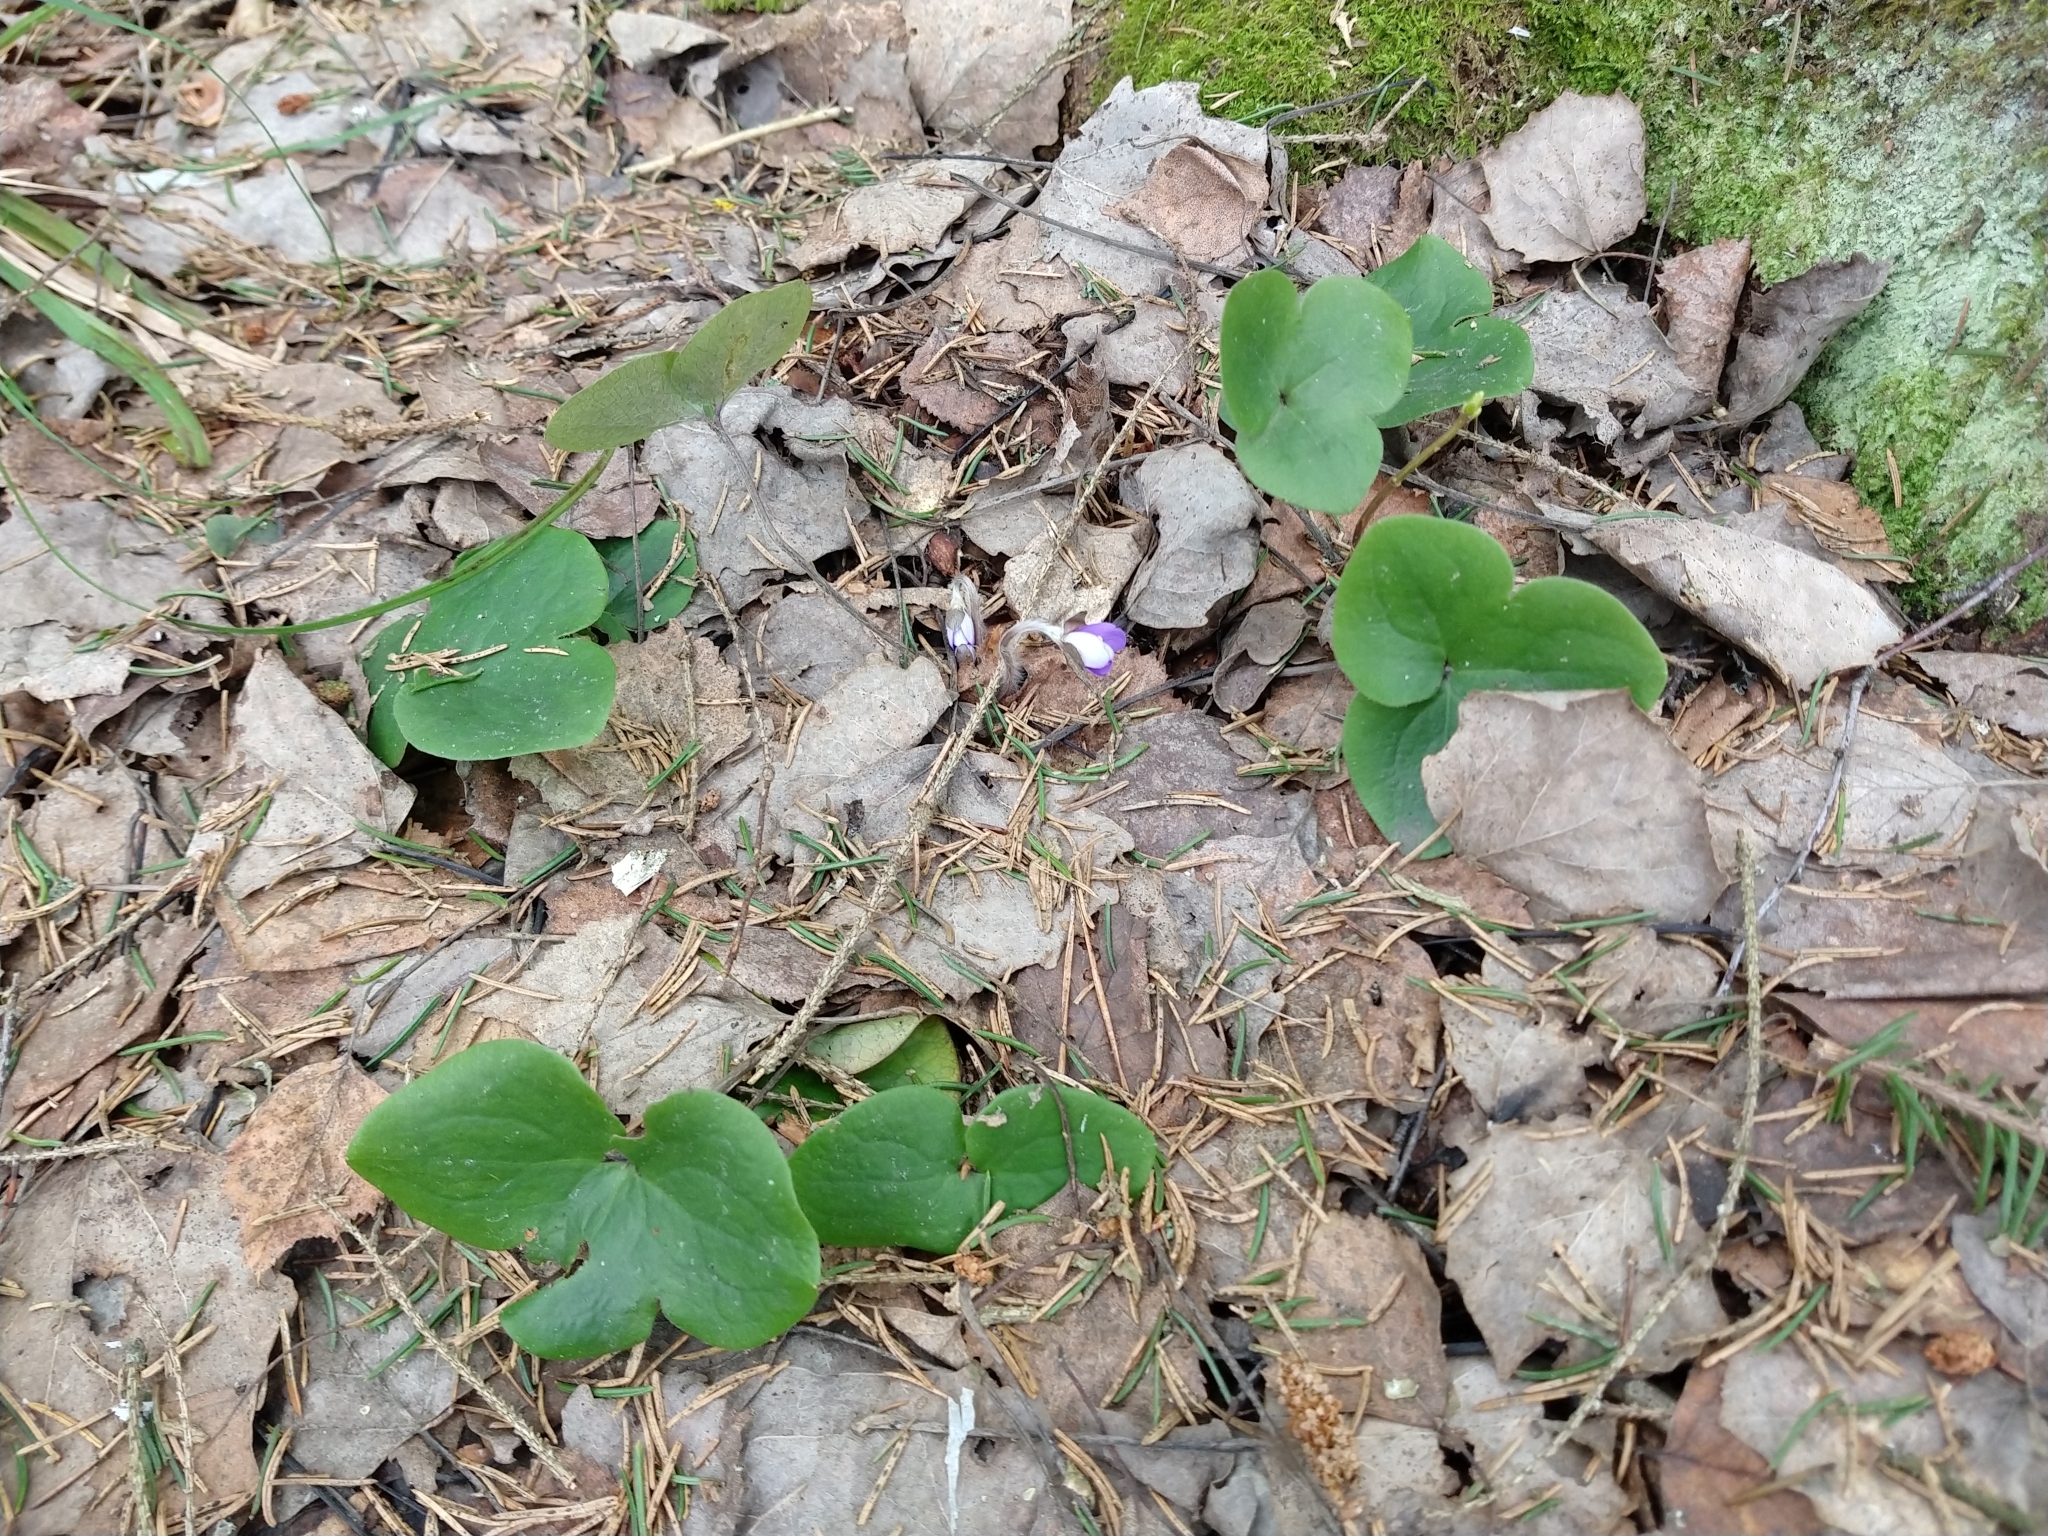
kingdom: Plantae
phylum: Tracheophyta
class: Magnoliopsida
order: Ranunculales
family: Ranunculaceae
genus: Hepatica
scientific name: Hepatica nobilis
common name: Liverleaf
